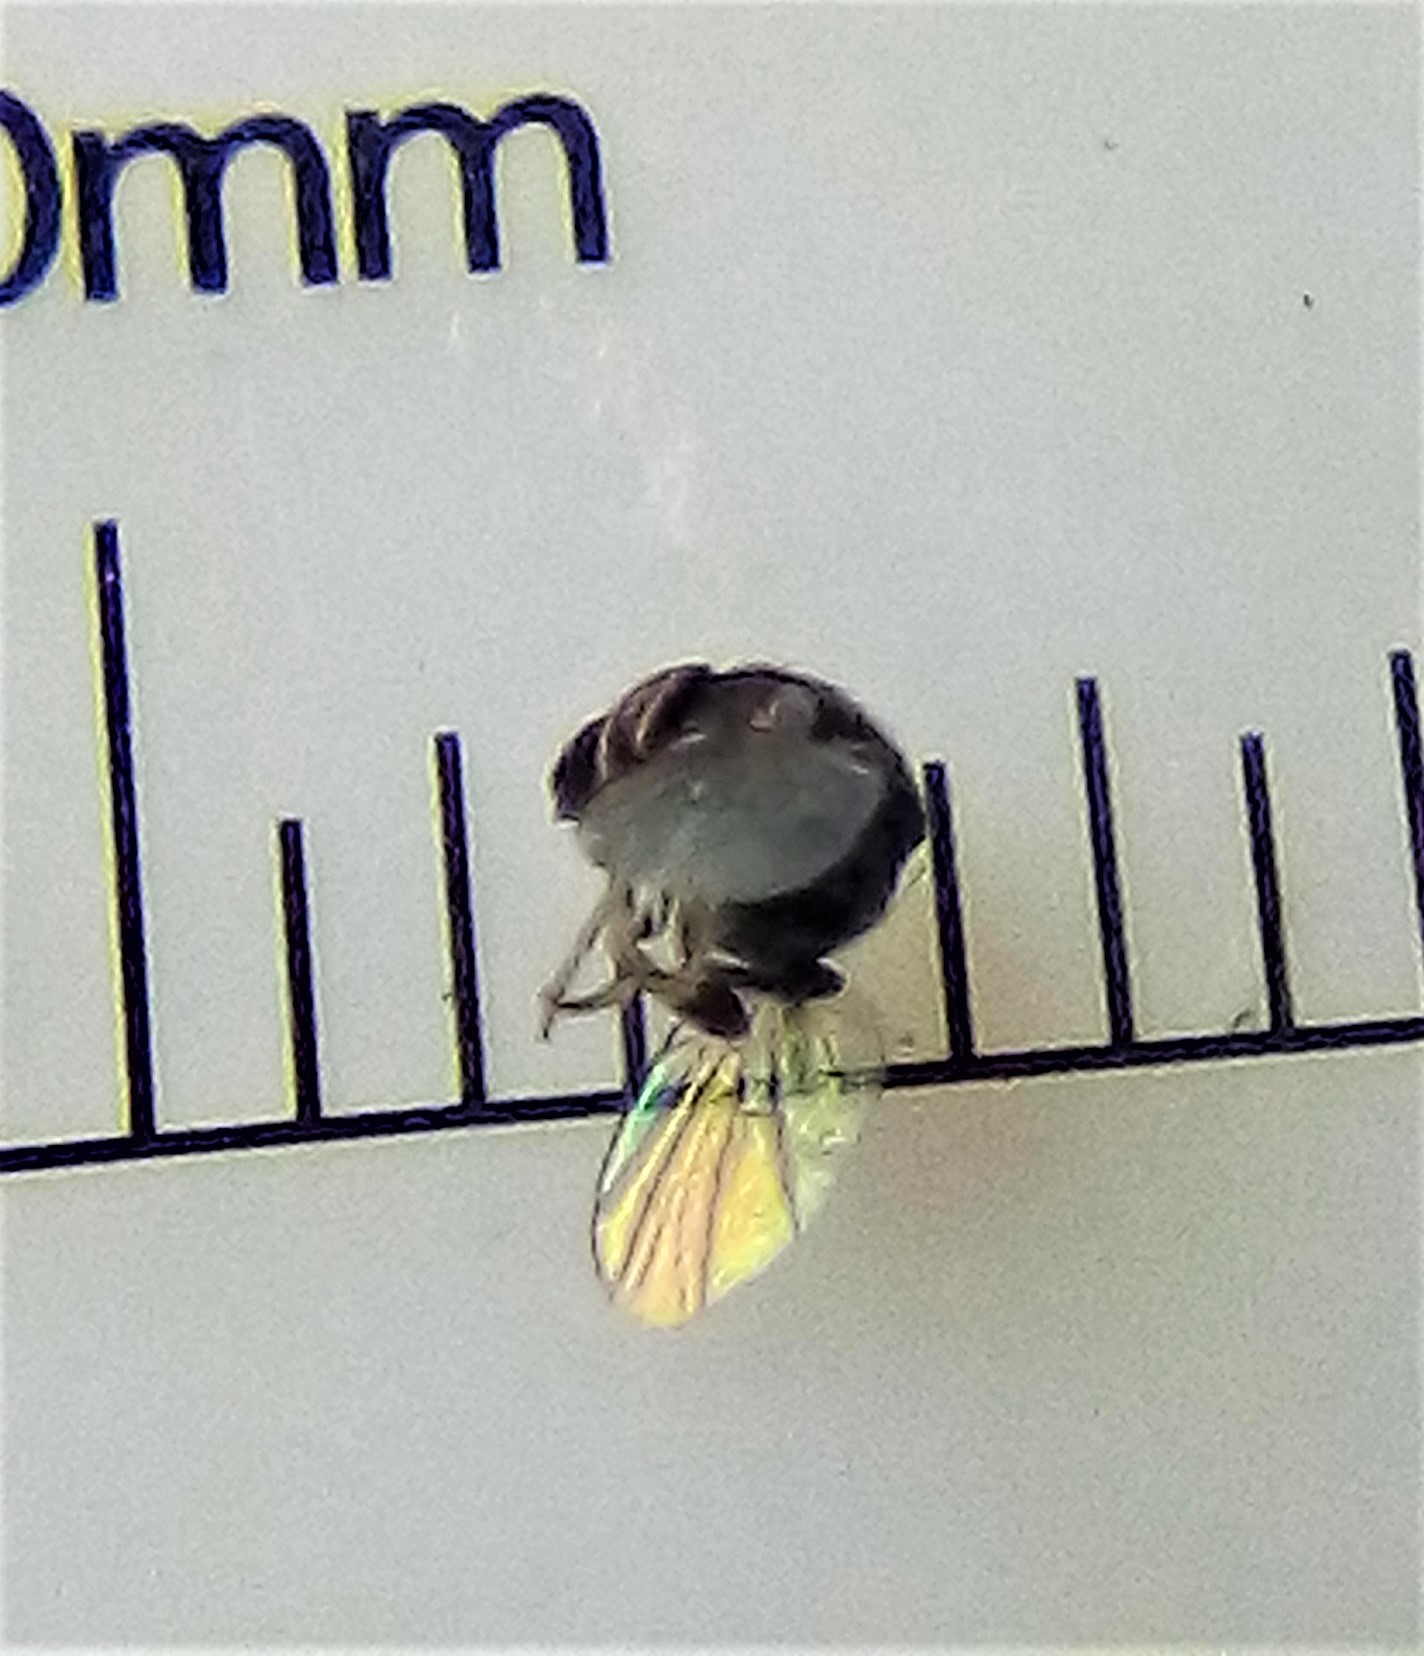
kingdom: Animalia
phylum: Arthropoda
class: Insecta
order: Diptera
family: Cryptochetidae
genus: Cryptochetum
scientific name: Cryptochetum iceryae
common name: Cottony cushion scale fly
